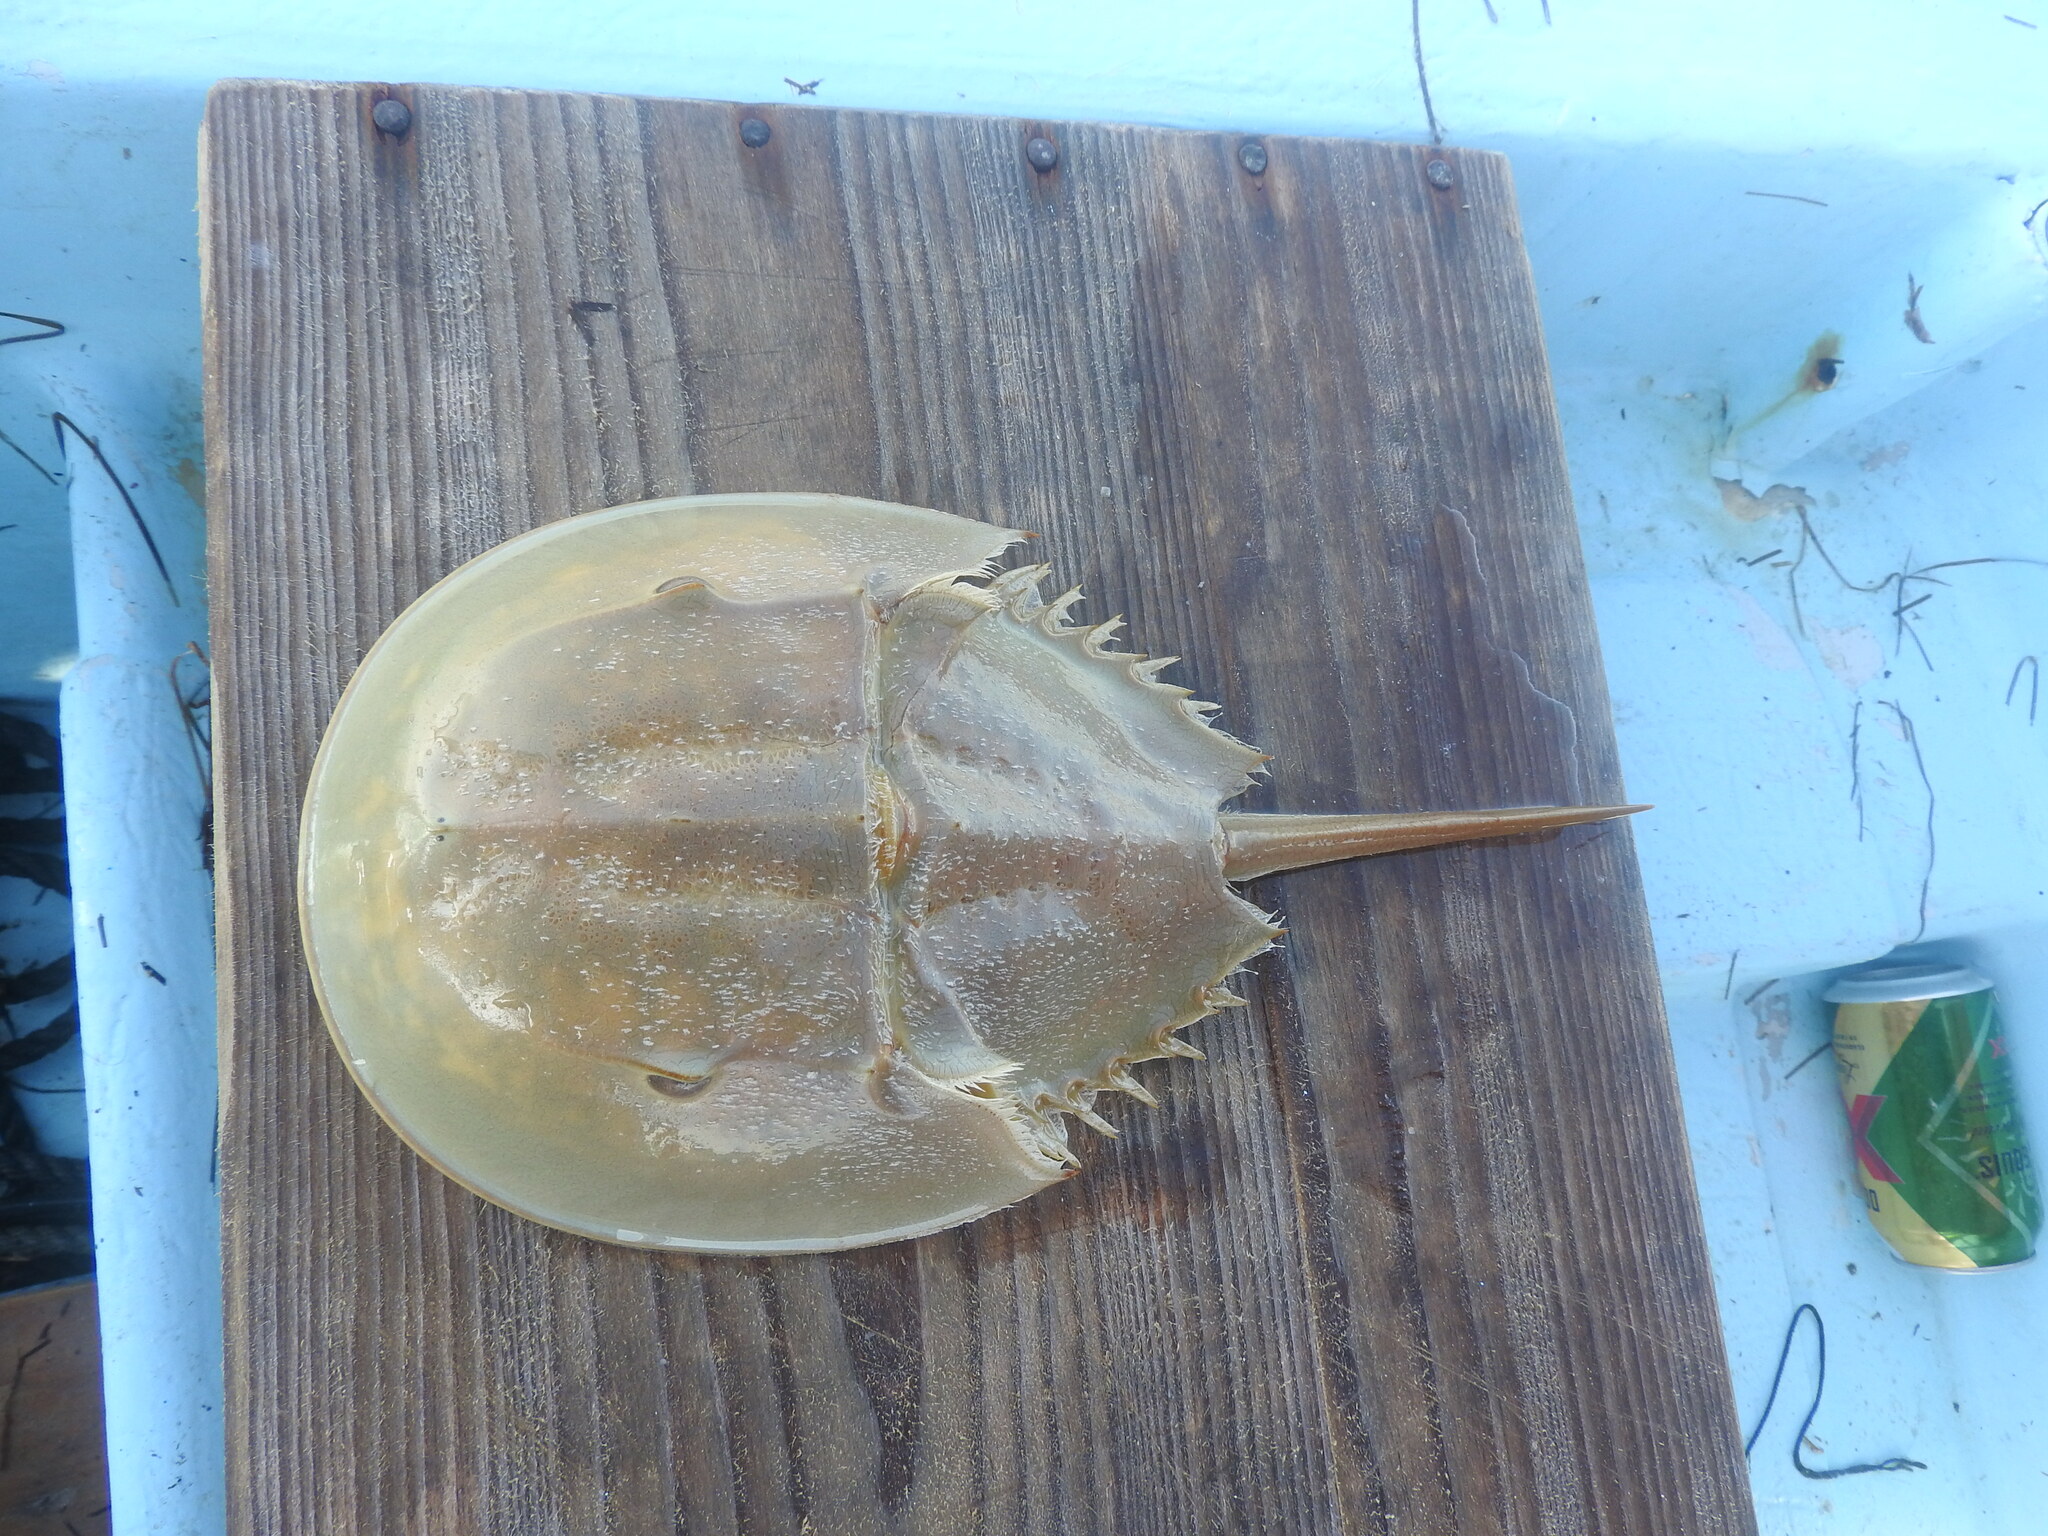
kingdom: Animalia
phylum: Arthropoda
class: Merostomata
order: Xiphosurida
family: Limulidae
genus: Limulus
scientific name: Limulus polyphemus
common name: Horseshoe crab
